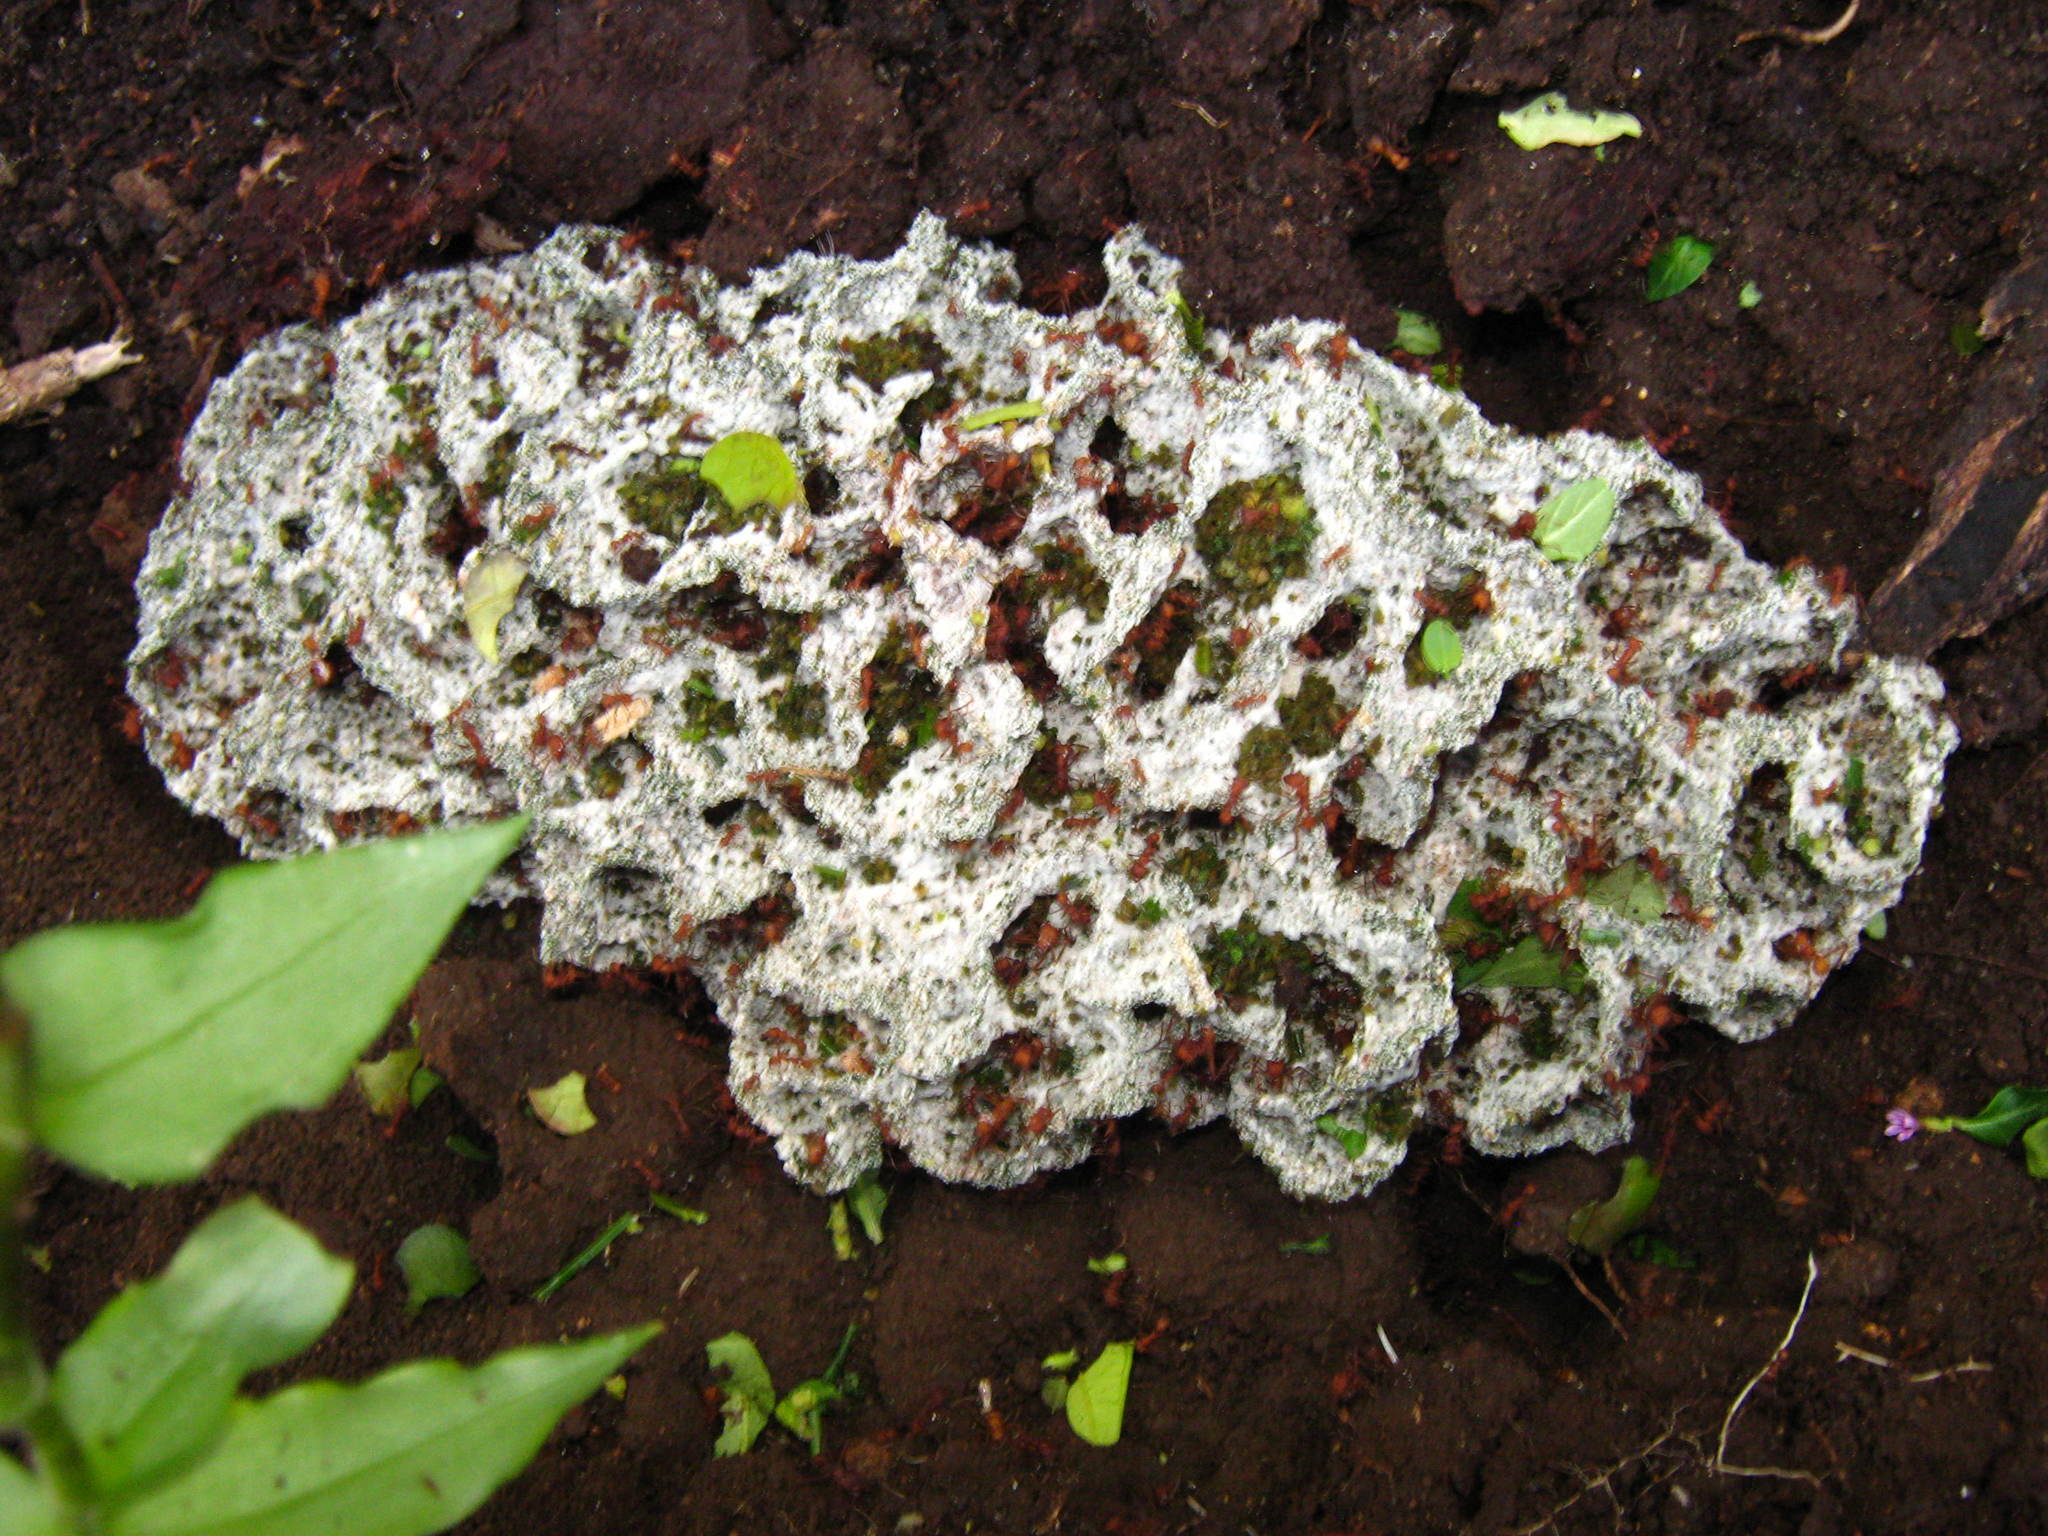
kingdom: Animalia
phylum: Arthropoda
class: Insecta
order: Hymenoptera
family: Formicidae
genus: Atta
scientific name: Atta cephalotes
